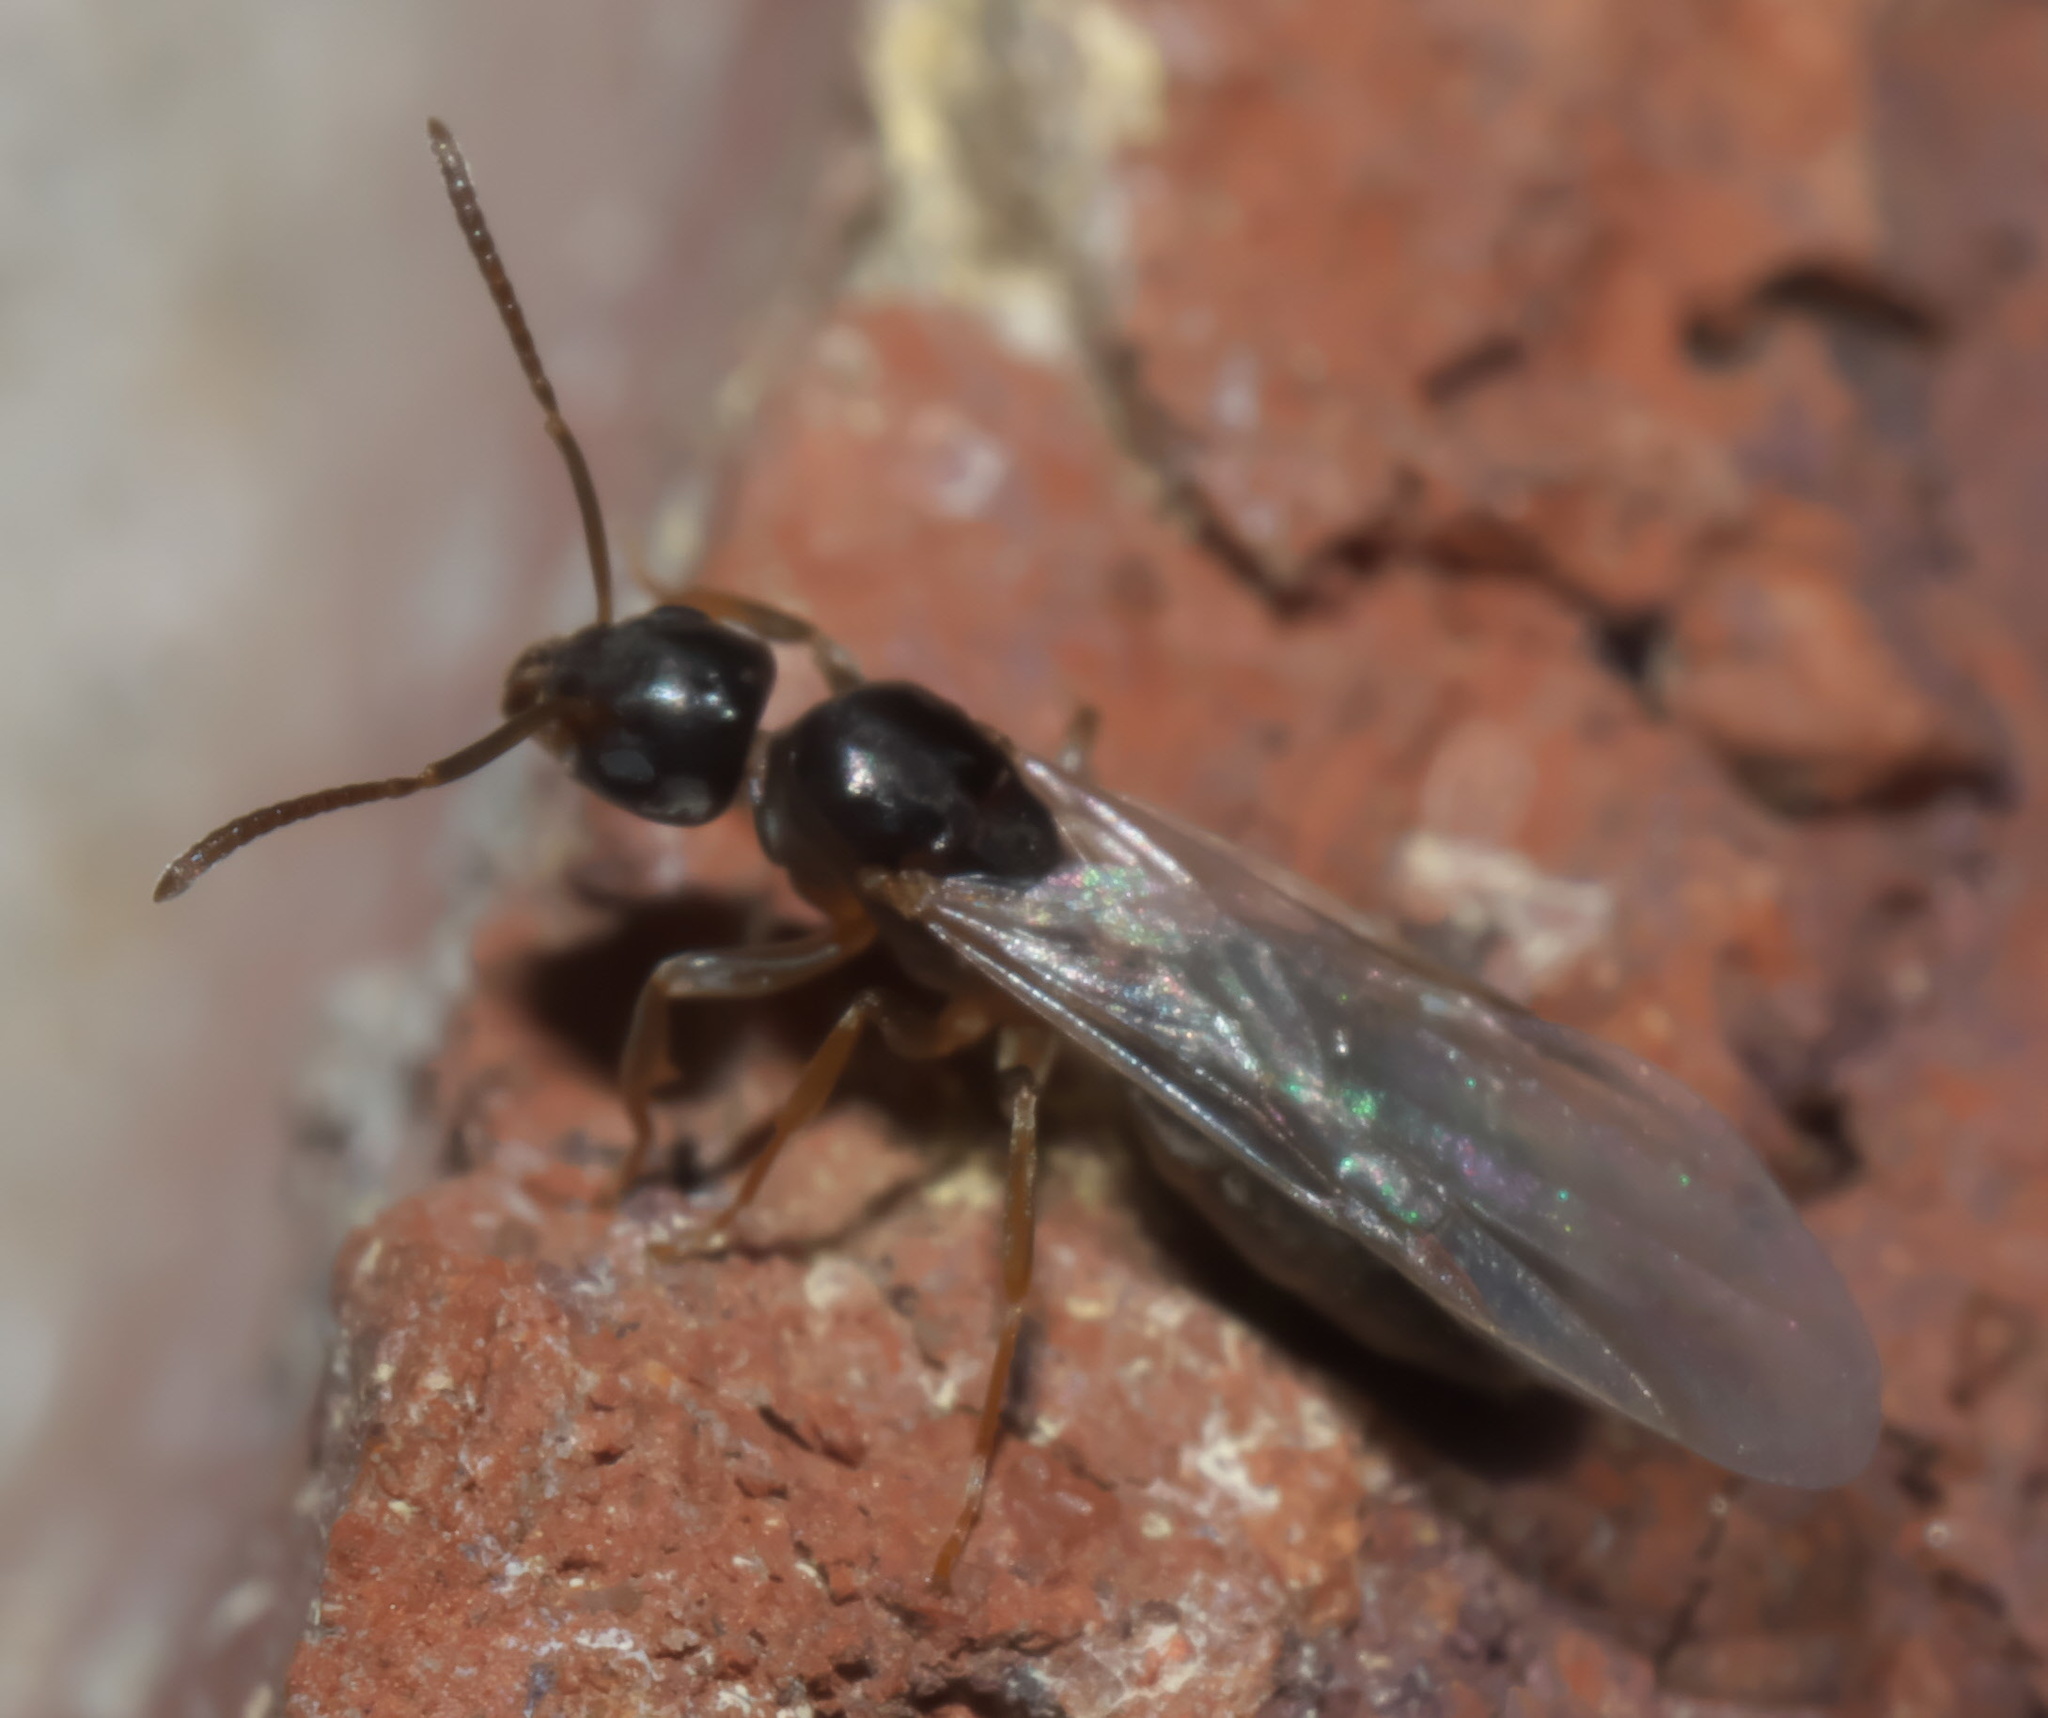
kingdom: Animalia
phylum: Arthropoda
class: Insecta
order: Hymenoptera
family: Formicidae
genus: Tapinoma
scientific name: Tapinoma sessile
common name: Odorous house ant
